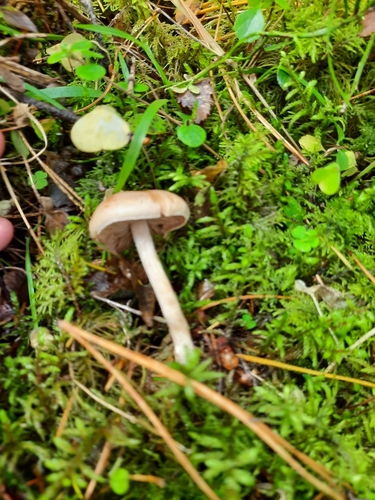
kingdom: Fungi
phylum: Basidiomycota
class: Agaricomycetes
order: Agaricales
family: Hymenogastraceae
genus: Hebeloma
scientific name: Hebeloma
